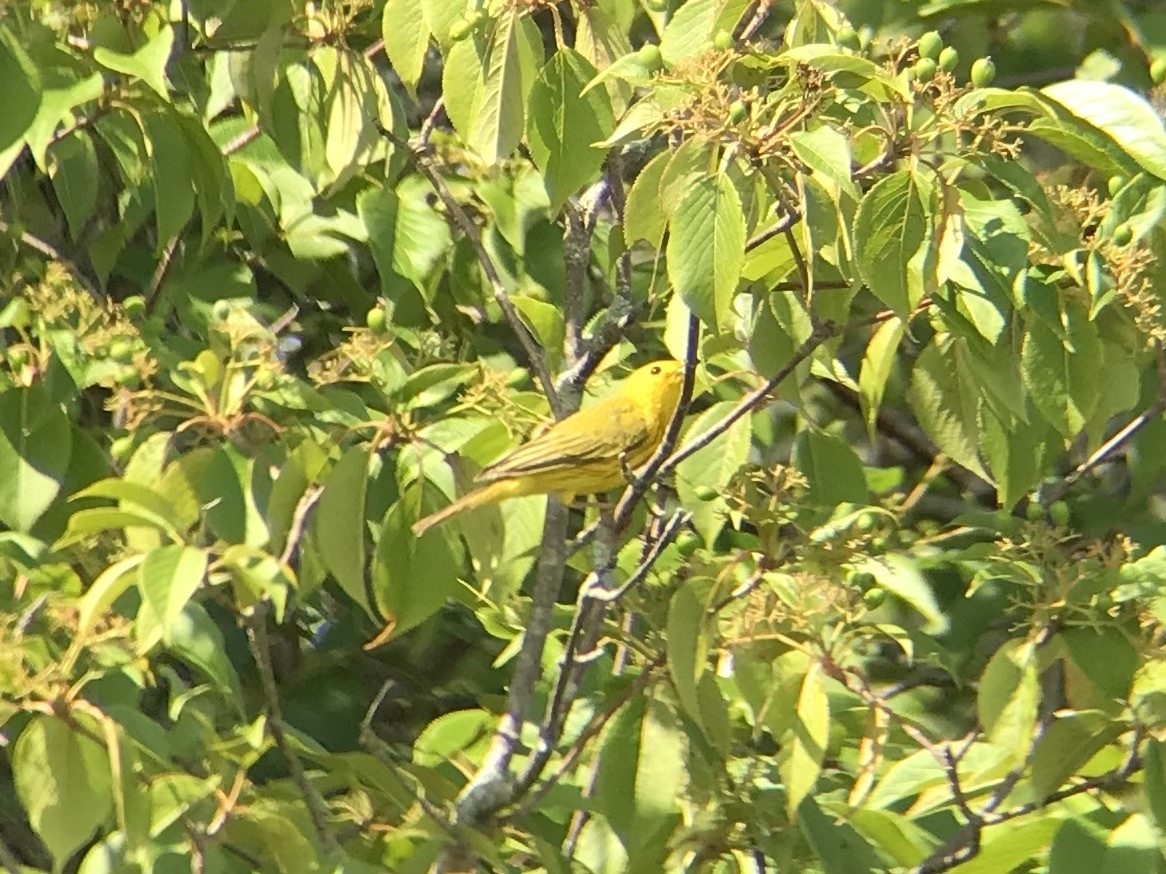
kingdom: Animalia
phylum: Chordata
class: Aves
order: Passeriformes
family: Parulidae
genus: Setophaga
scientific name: Setophaga petechia
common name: Yellow warbler
